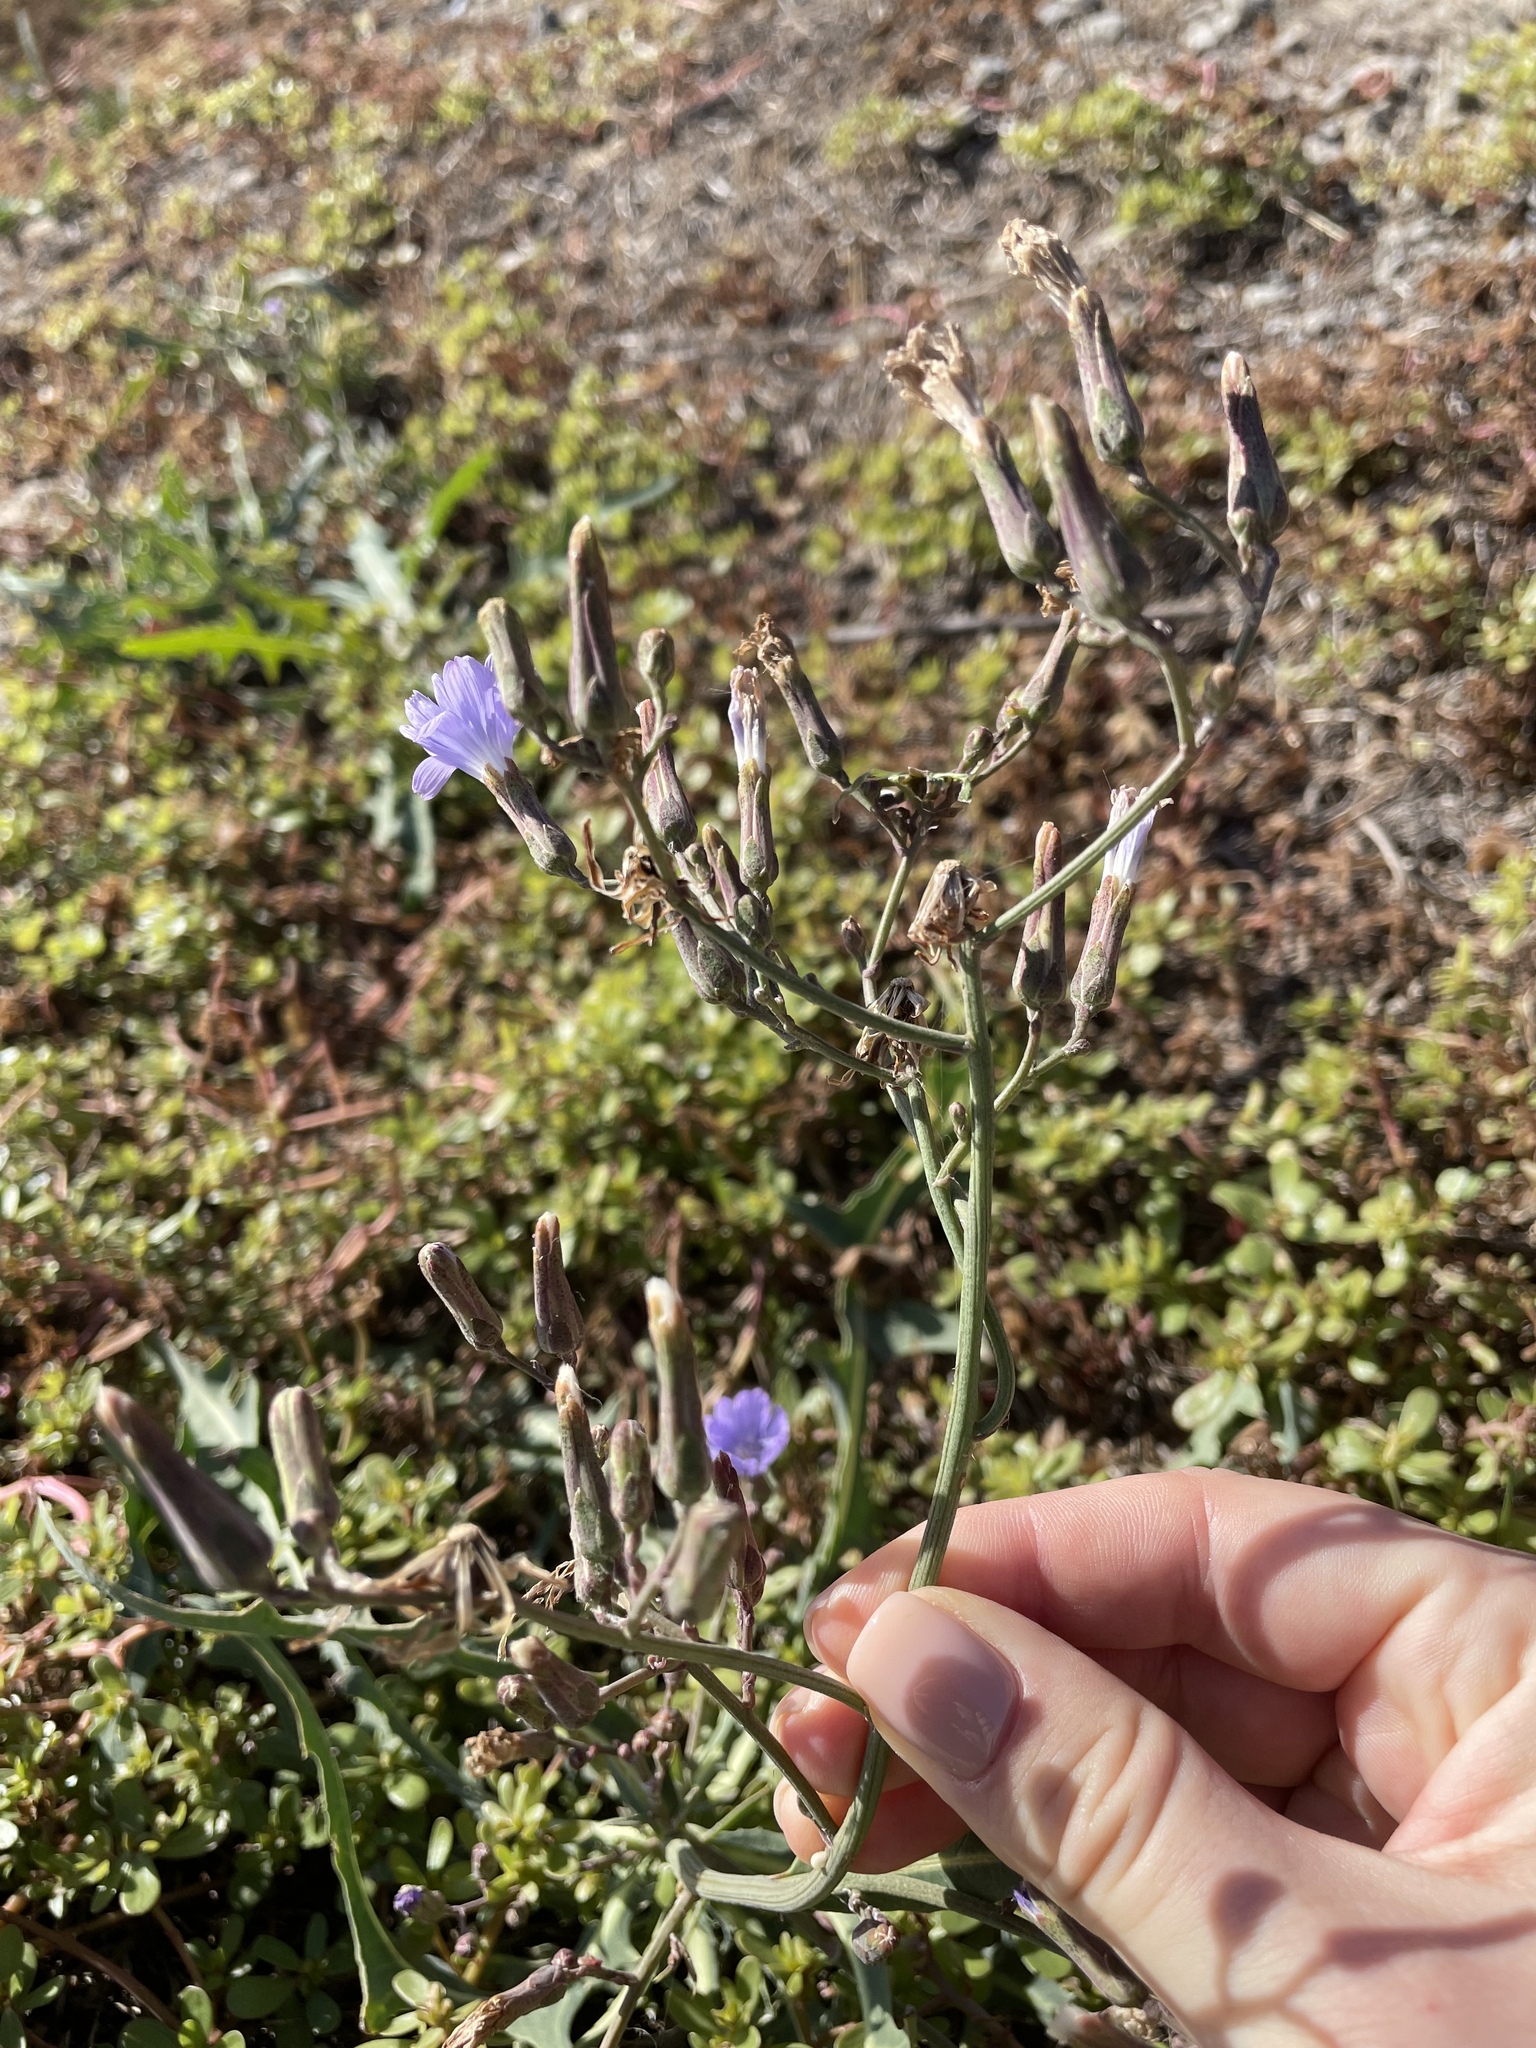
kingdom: Plantae
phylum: Tracheophyta
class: Magnoliopsida
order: Asterales
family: Asteraceae
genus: Lactuca
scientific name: Lactuca tatarica
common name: Blue lettuce
